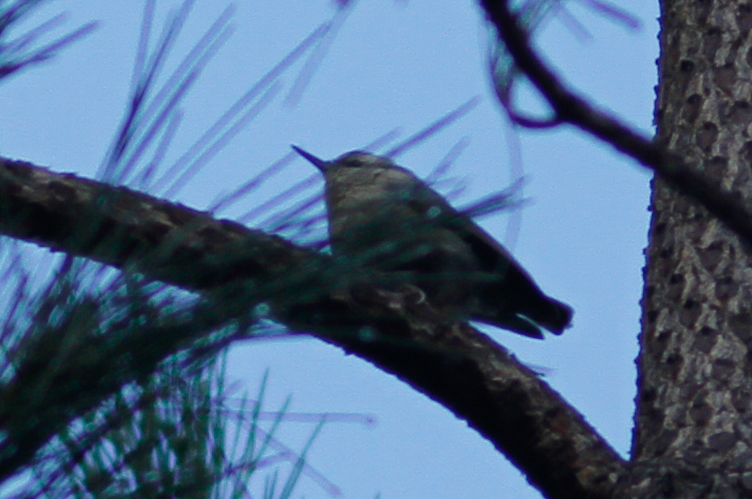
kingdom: Animalia
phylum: Chordata
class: Aves
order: Passeriformes
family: Sittidae
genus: Sitta
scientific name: Sitta whiteheadi
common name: Corsican nuthatch
